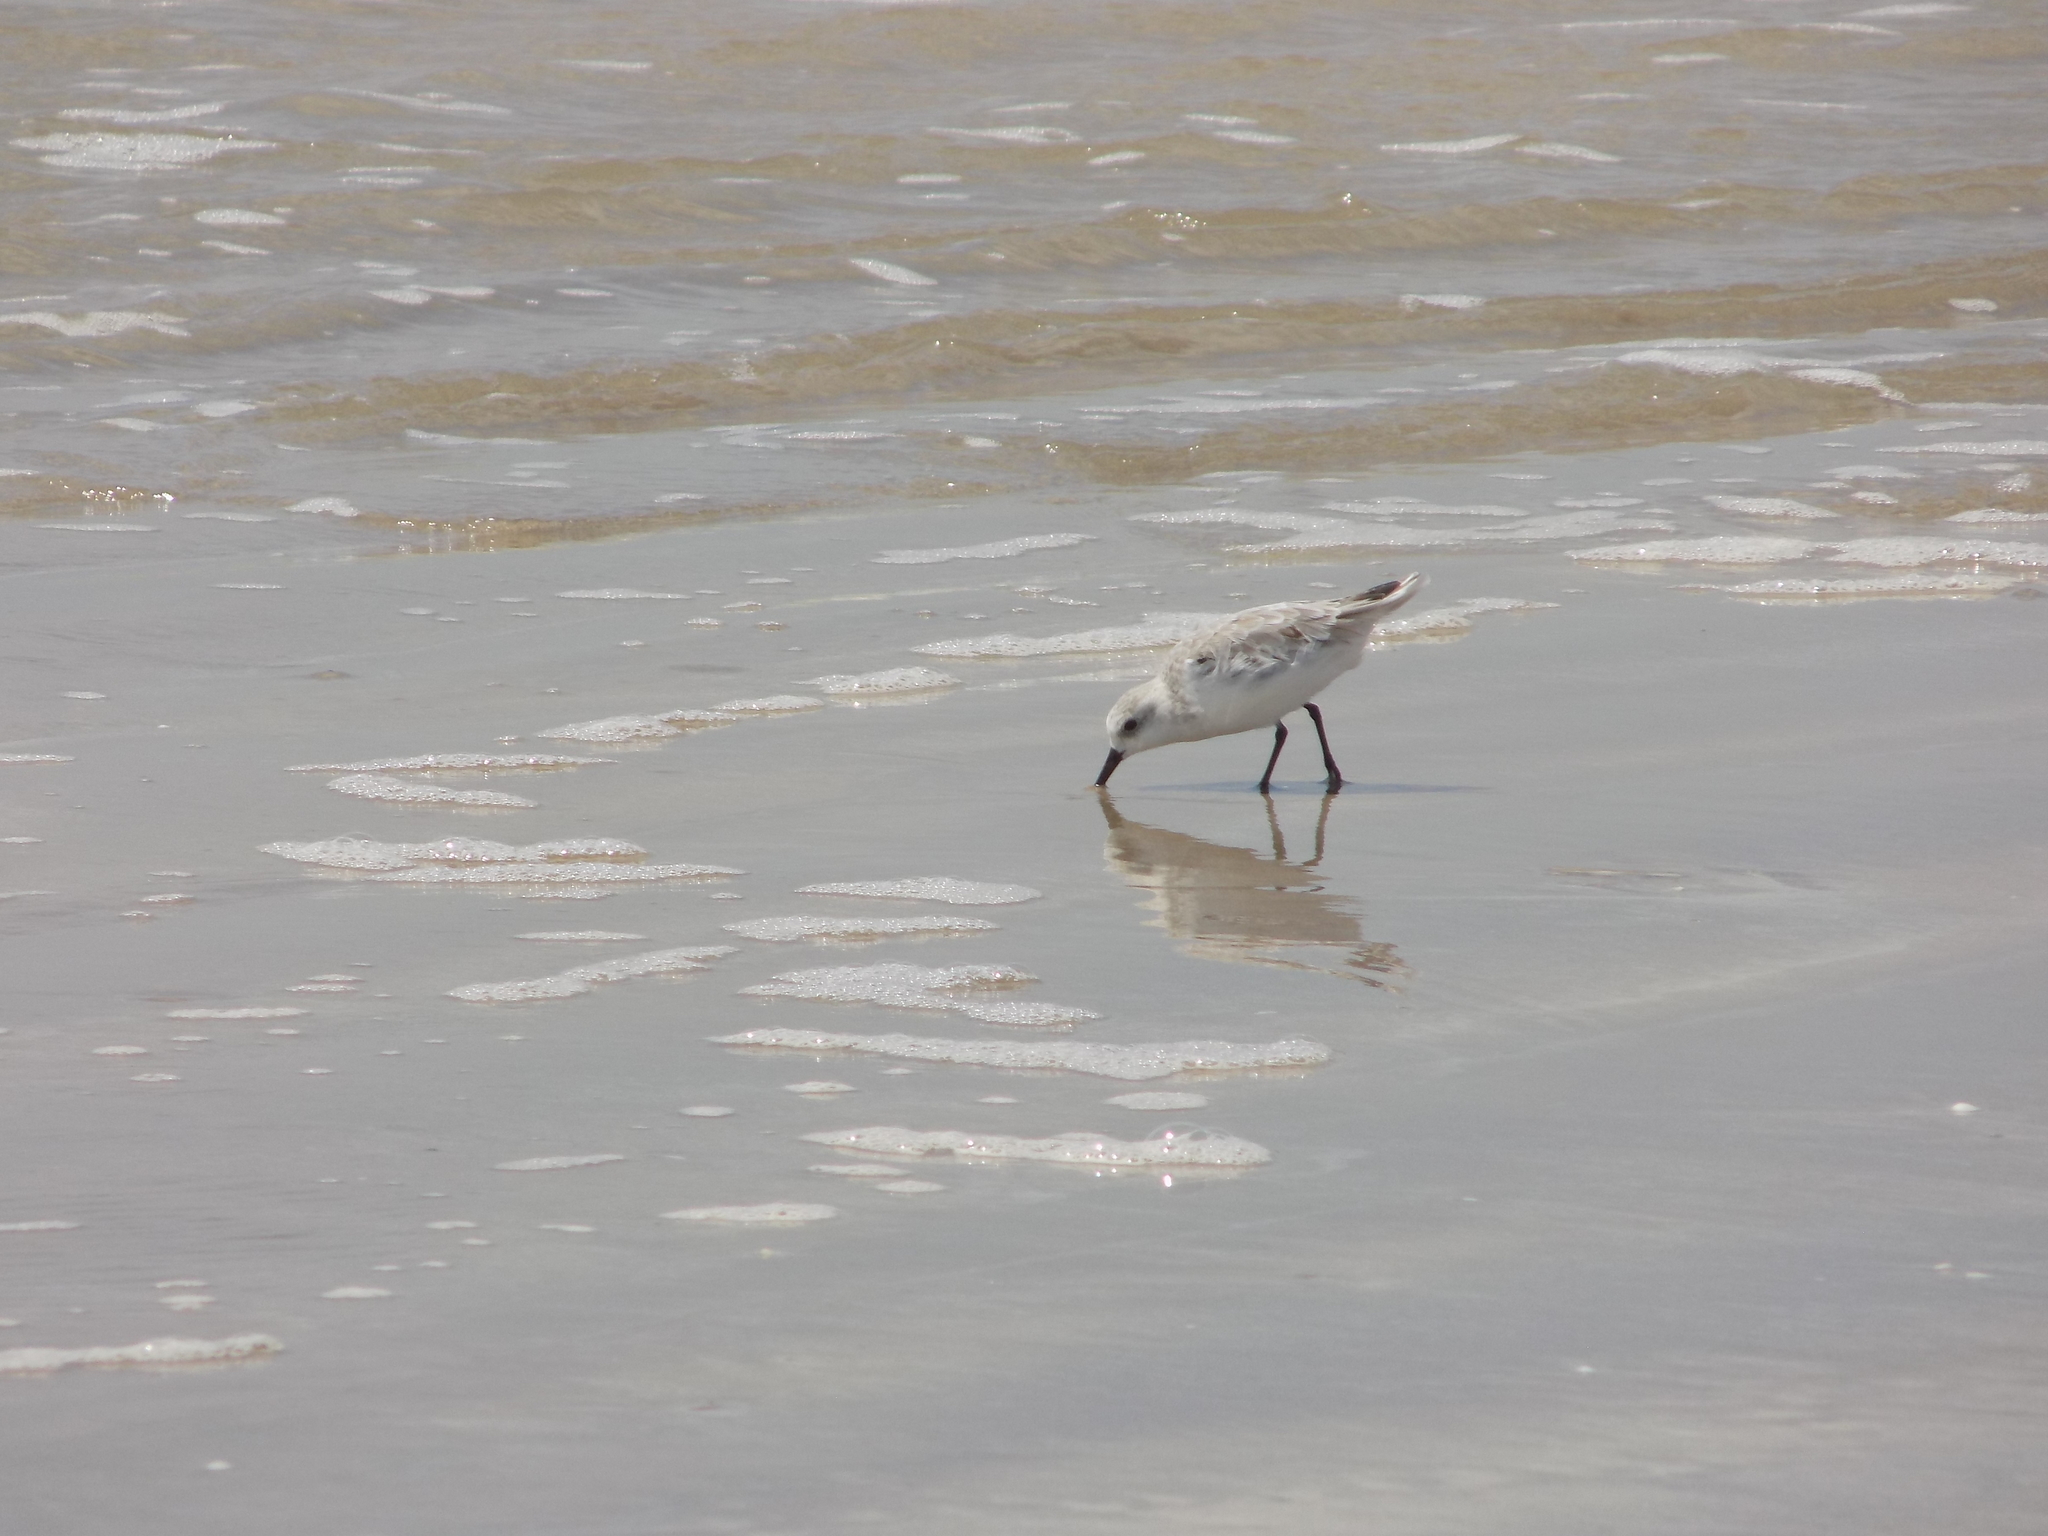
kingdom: Animalia
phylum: Chordata
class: Aves
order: Charadriiformes
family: Scolopacidae
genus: Calidris
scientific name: Calidris alba
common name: Sanderling
